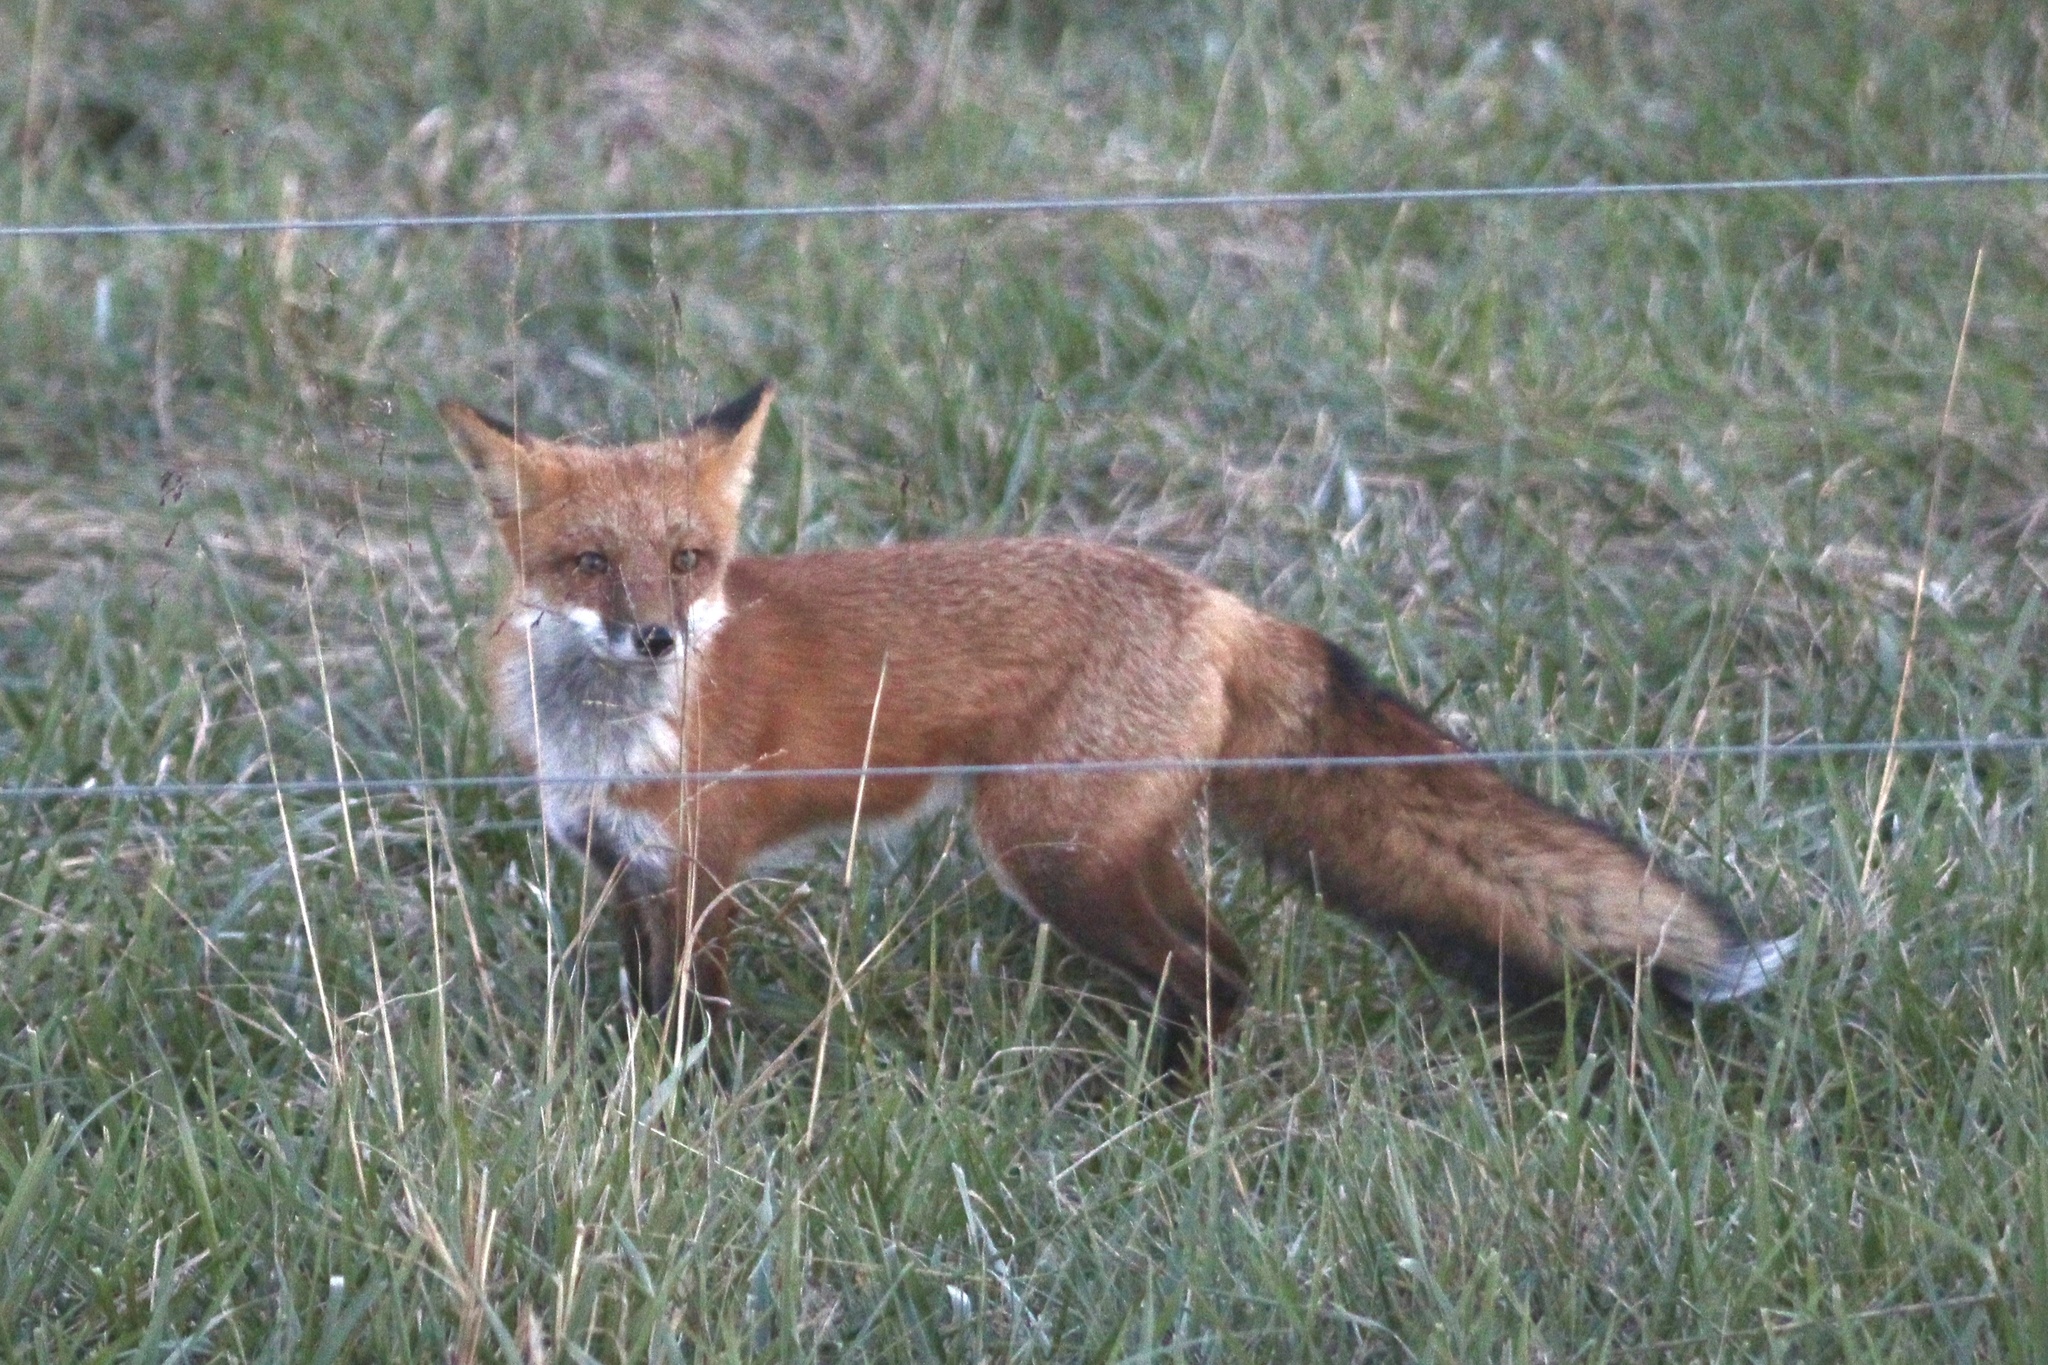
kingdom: Animalia
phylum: Chordata
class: Mammalia
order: Carnivora
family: Canidae
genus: Vulpes
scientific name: Vulpes vulpes
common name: Red fox
